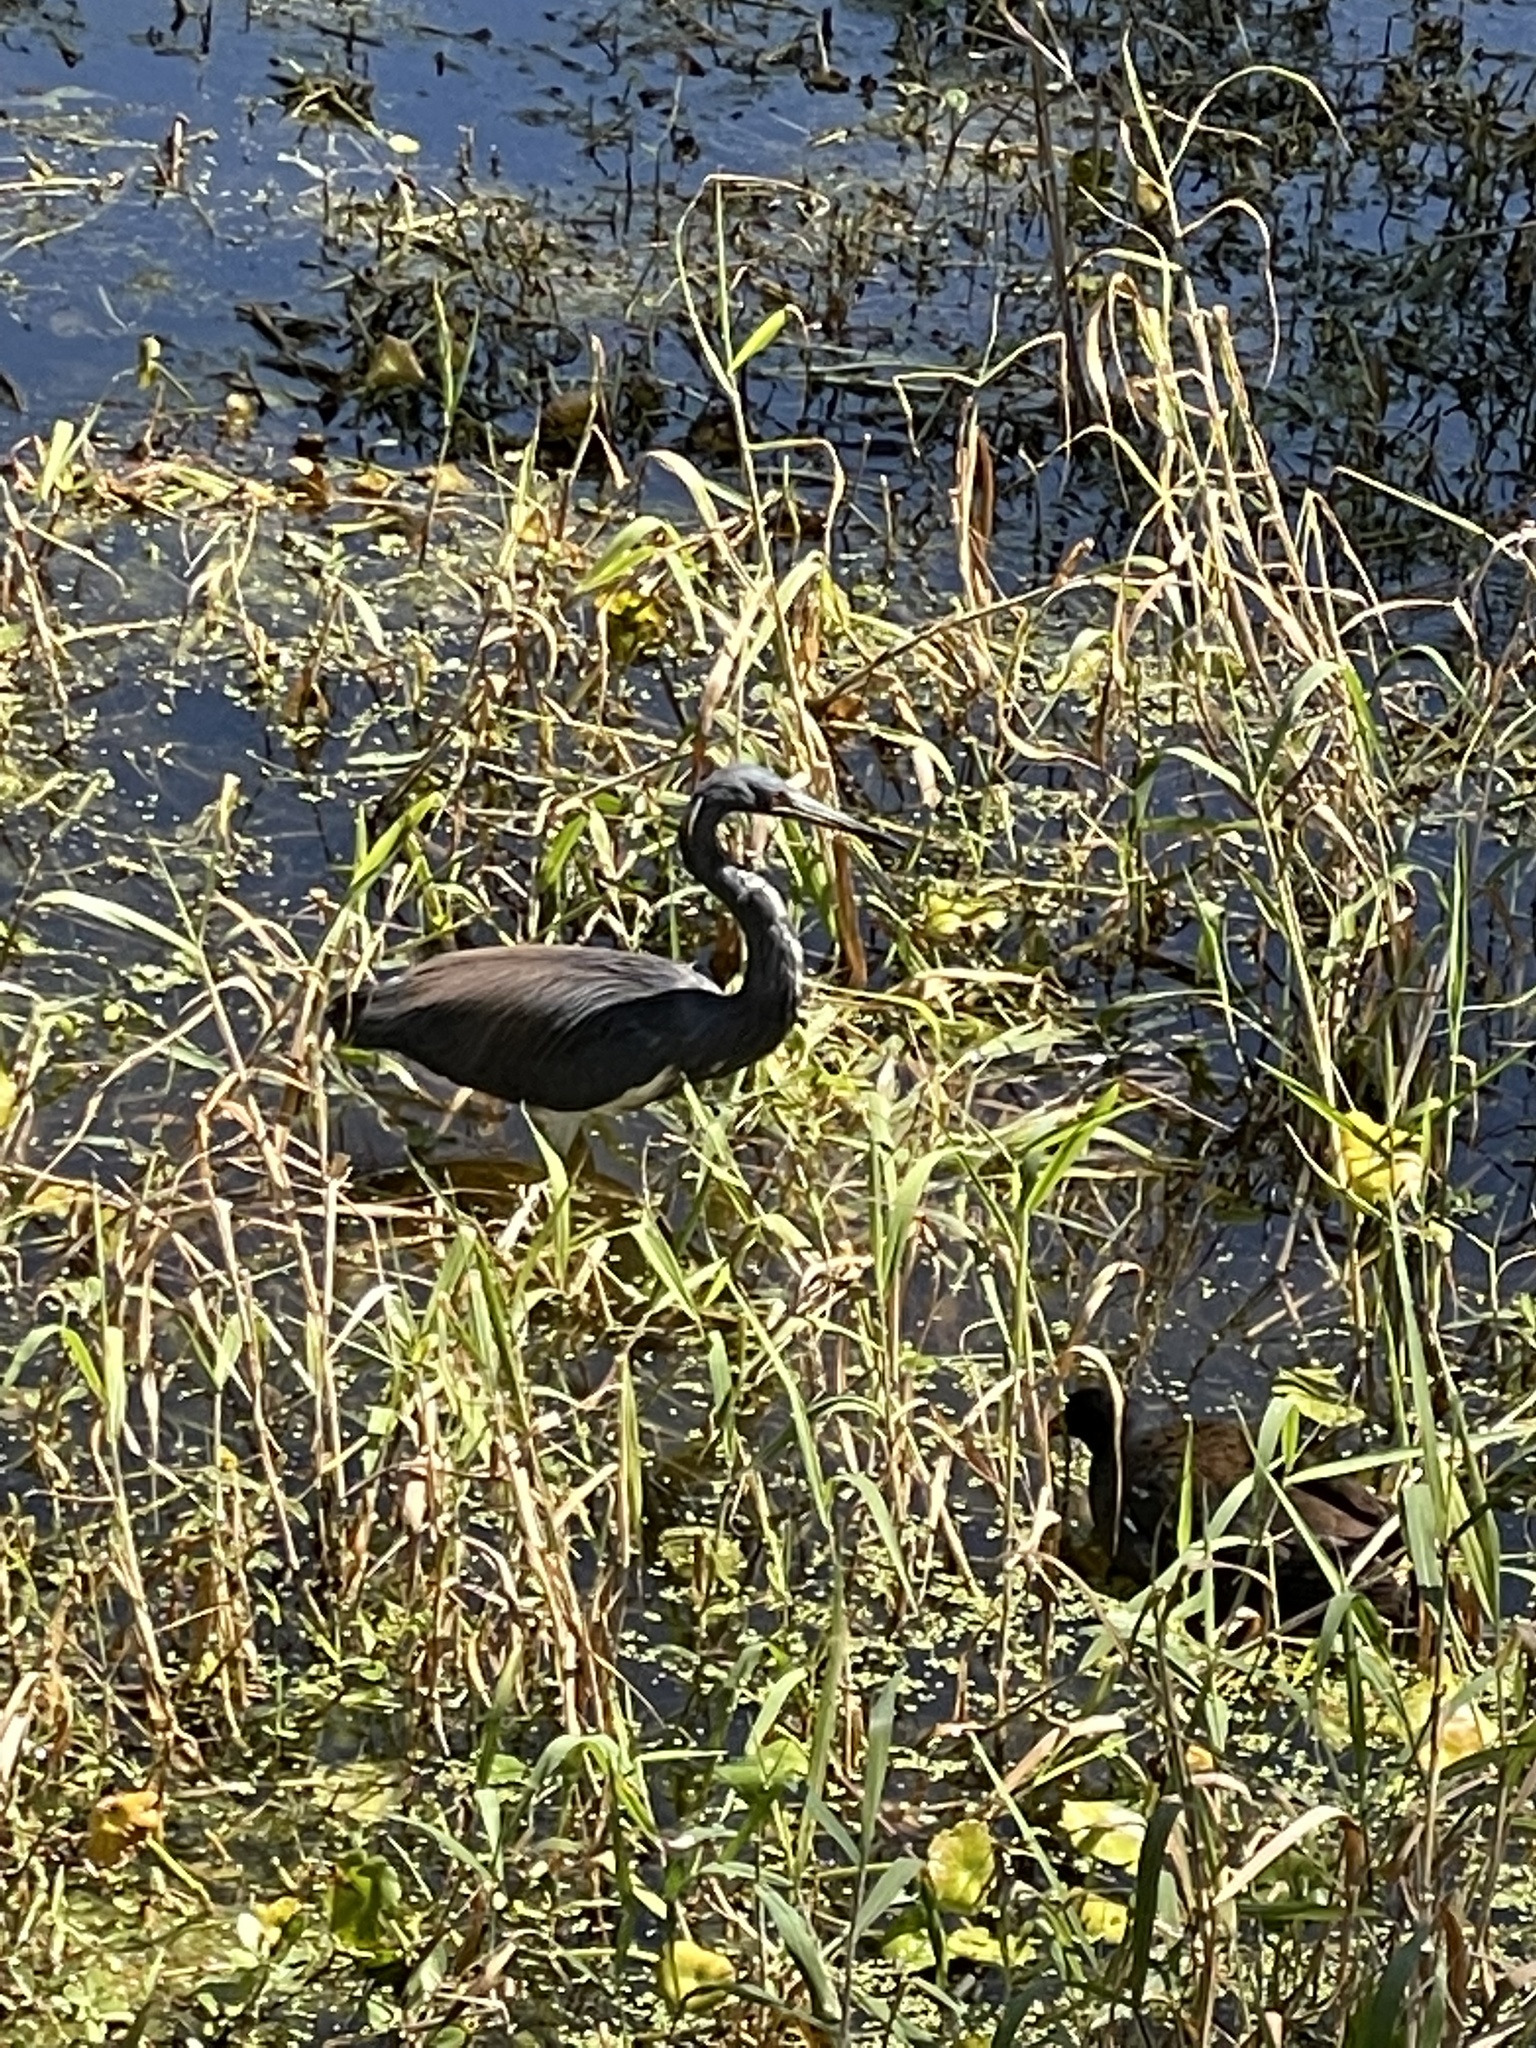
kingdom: Animalia
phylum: Chordata
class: Aves
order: Pelecaniformes
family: Ardeidae
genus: Egretta
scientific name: Egretta tricolor
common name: Tricolored heron
